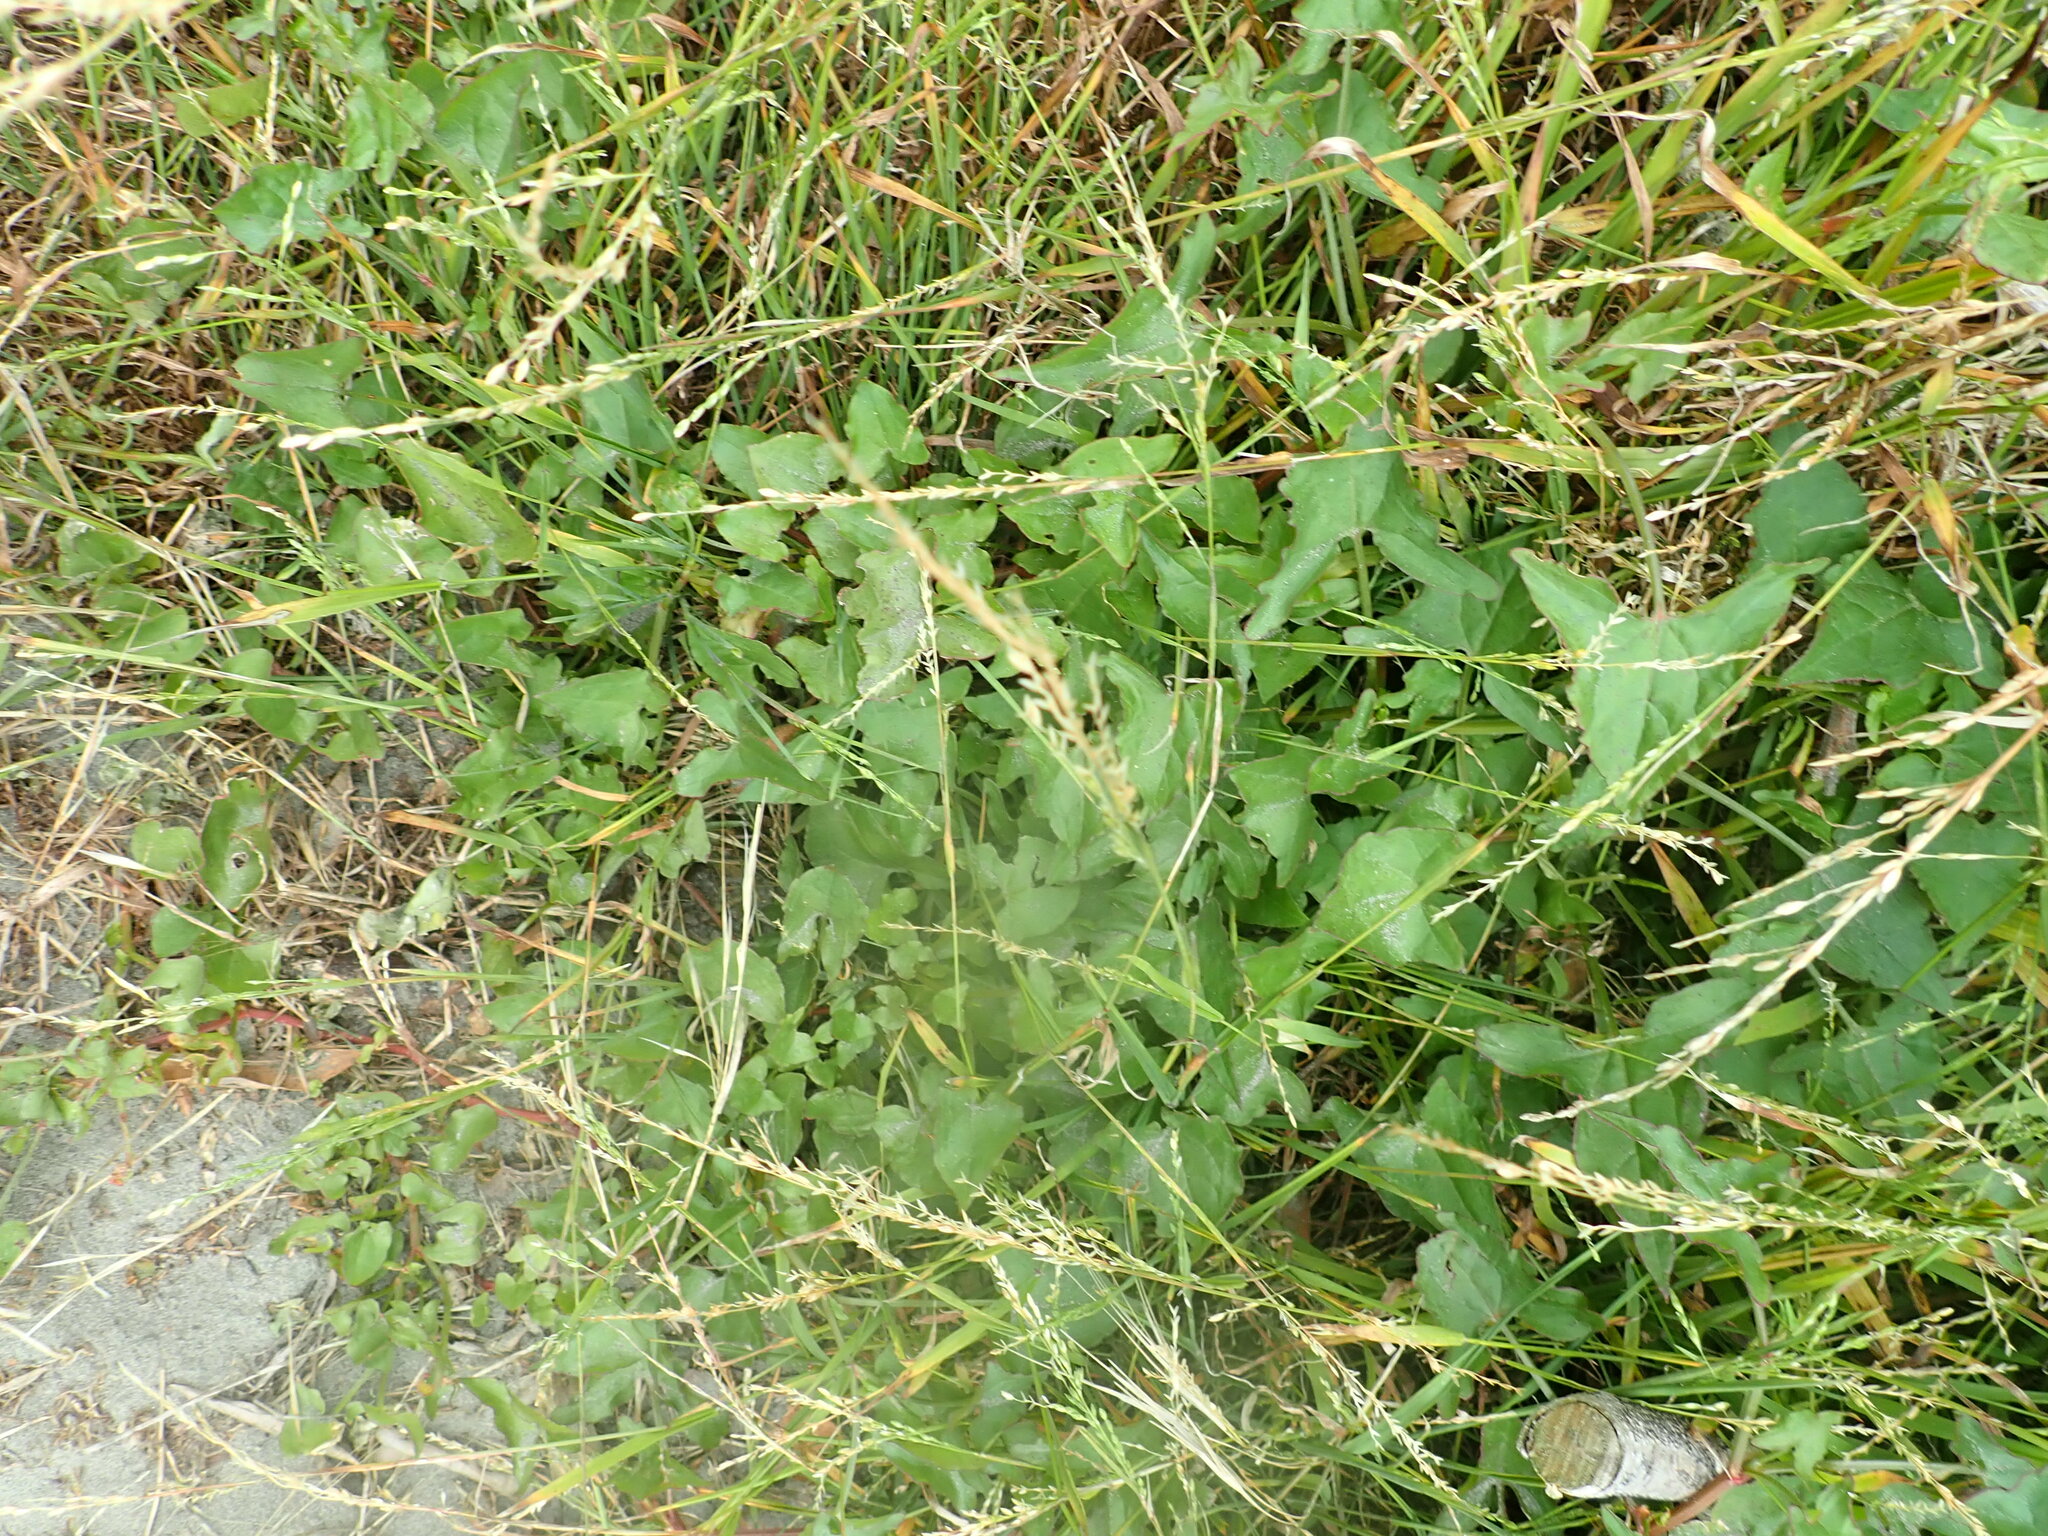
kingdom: Plantae
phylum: Tracheophyta
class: Magnoliopsida
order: Caryophyllales
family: Polygonaceae
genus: Rumex
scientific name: Rumex sagittatus
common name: Climbing dock
